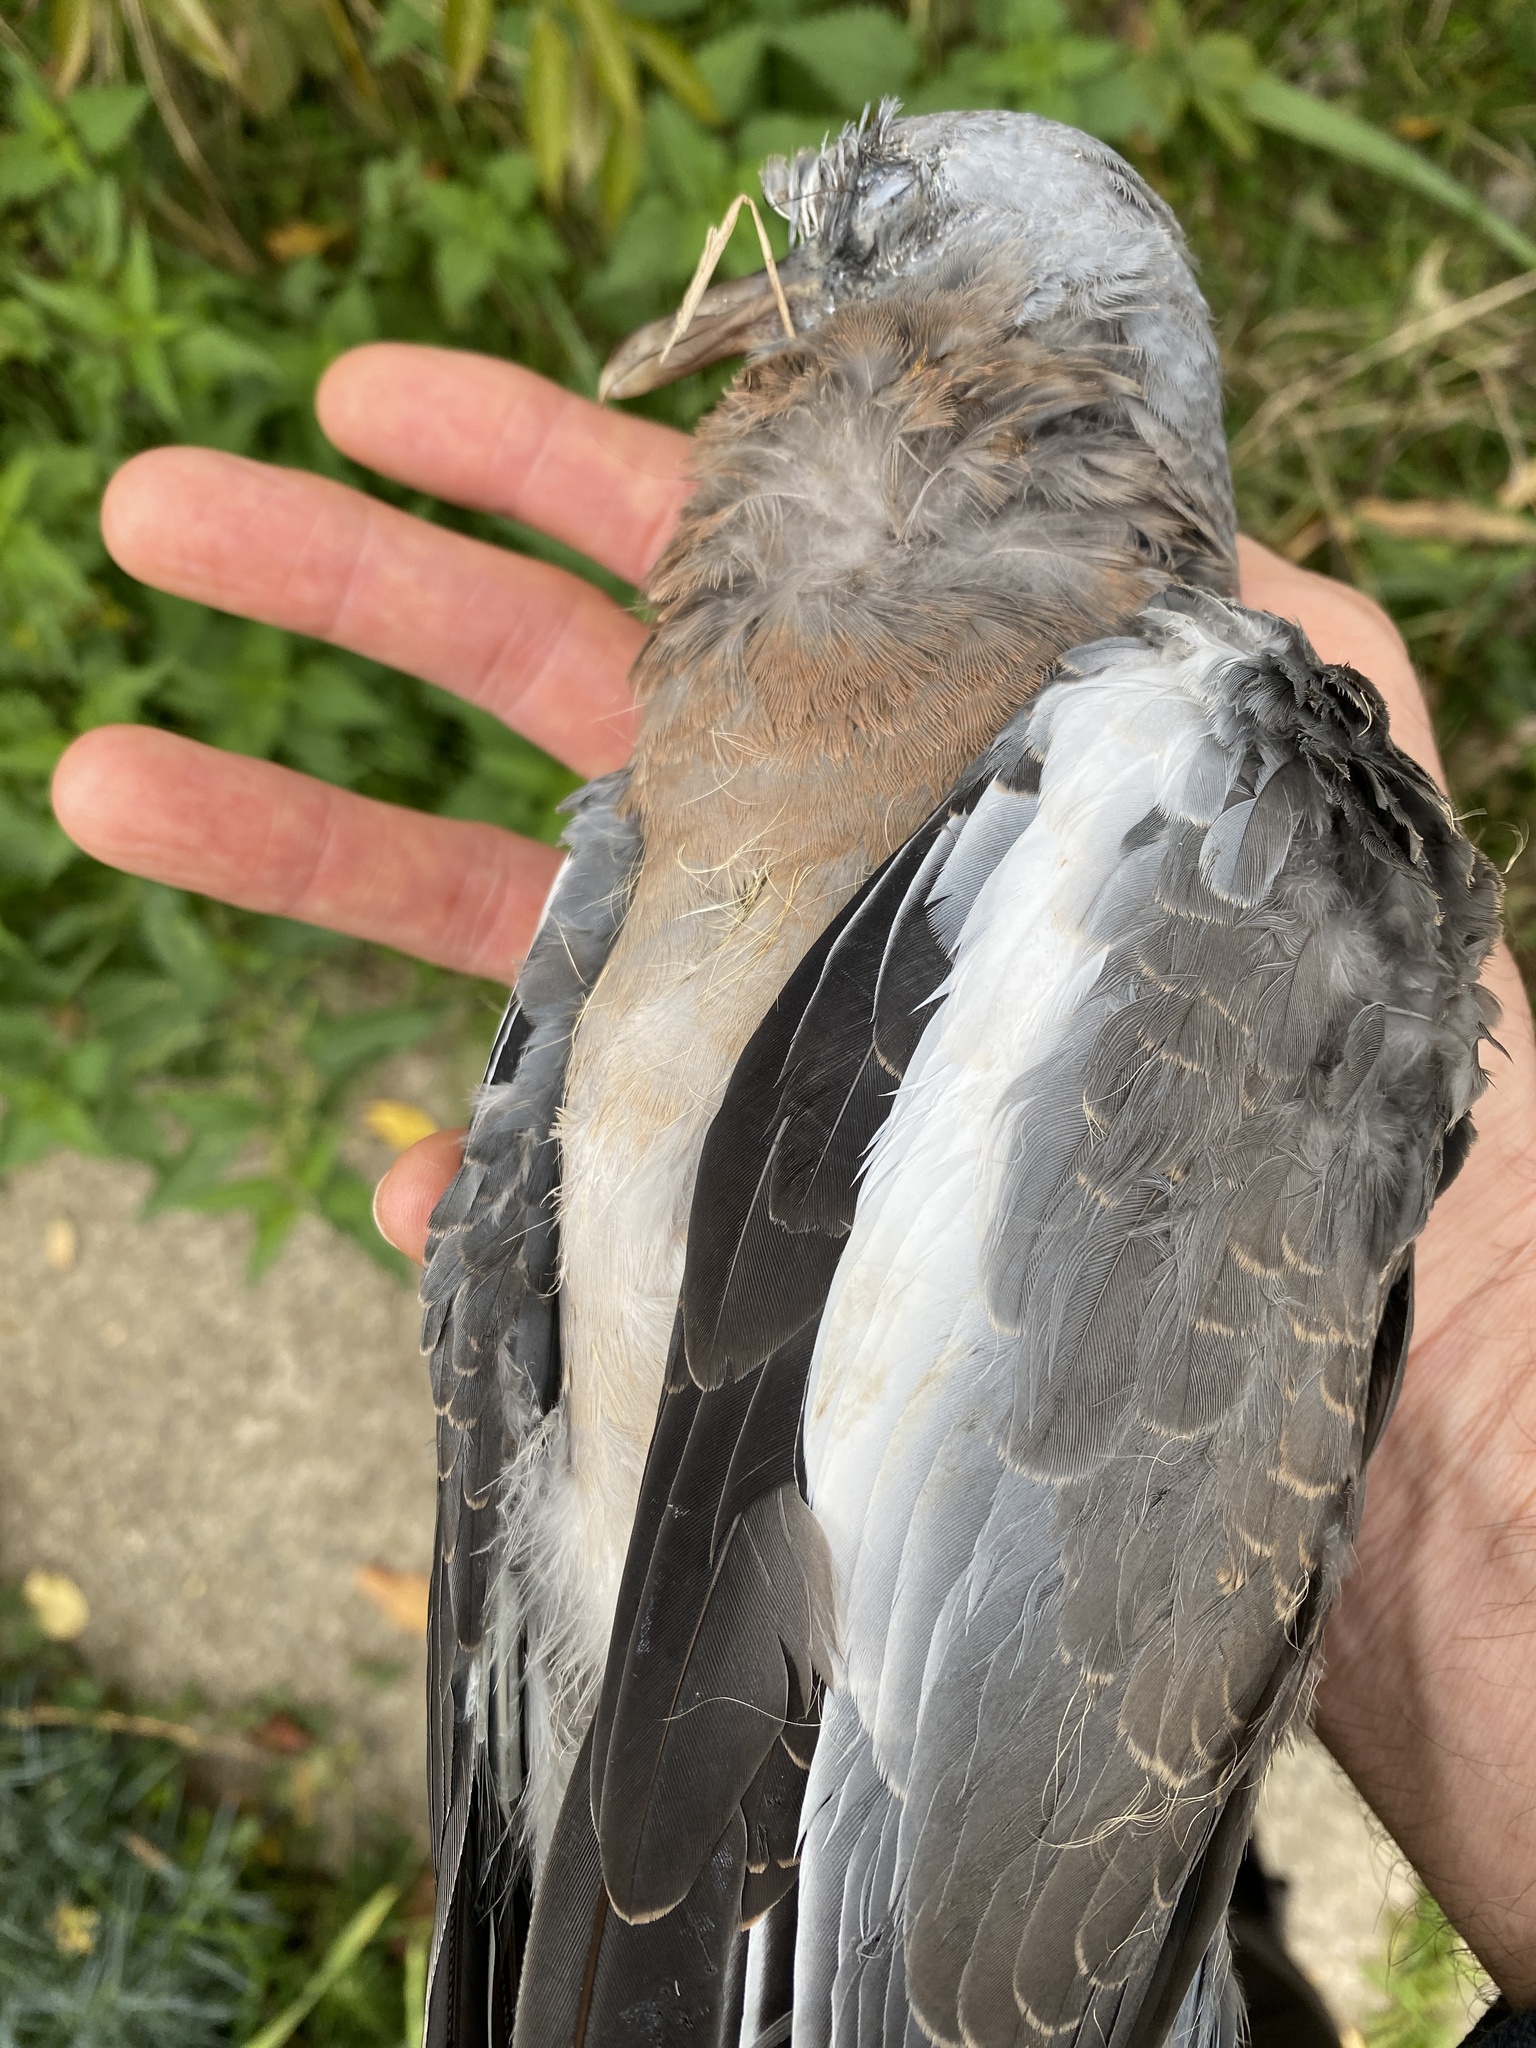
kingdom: Animalia
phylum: Chordata
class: Aves
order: Columbiformes
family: Columbidae
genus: Columba
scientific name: Columba palumbus
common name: Common wood pigeon
